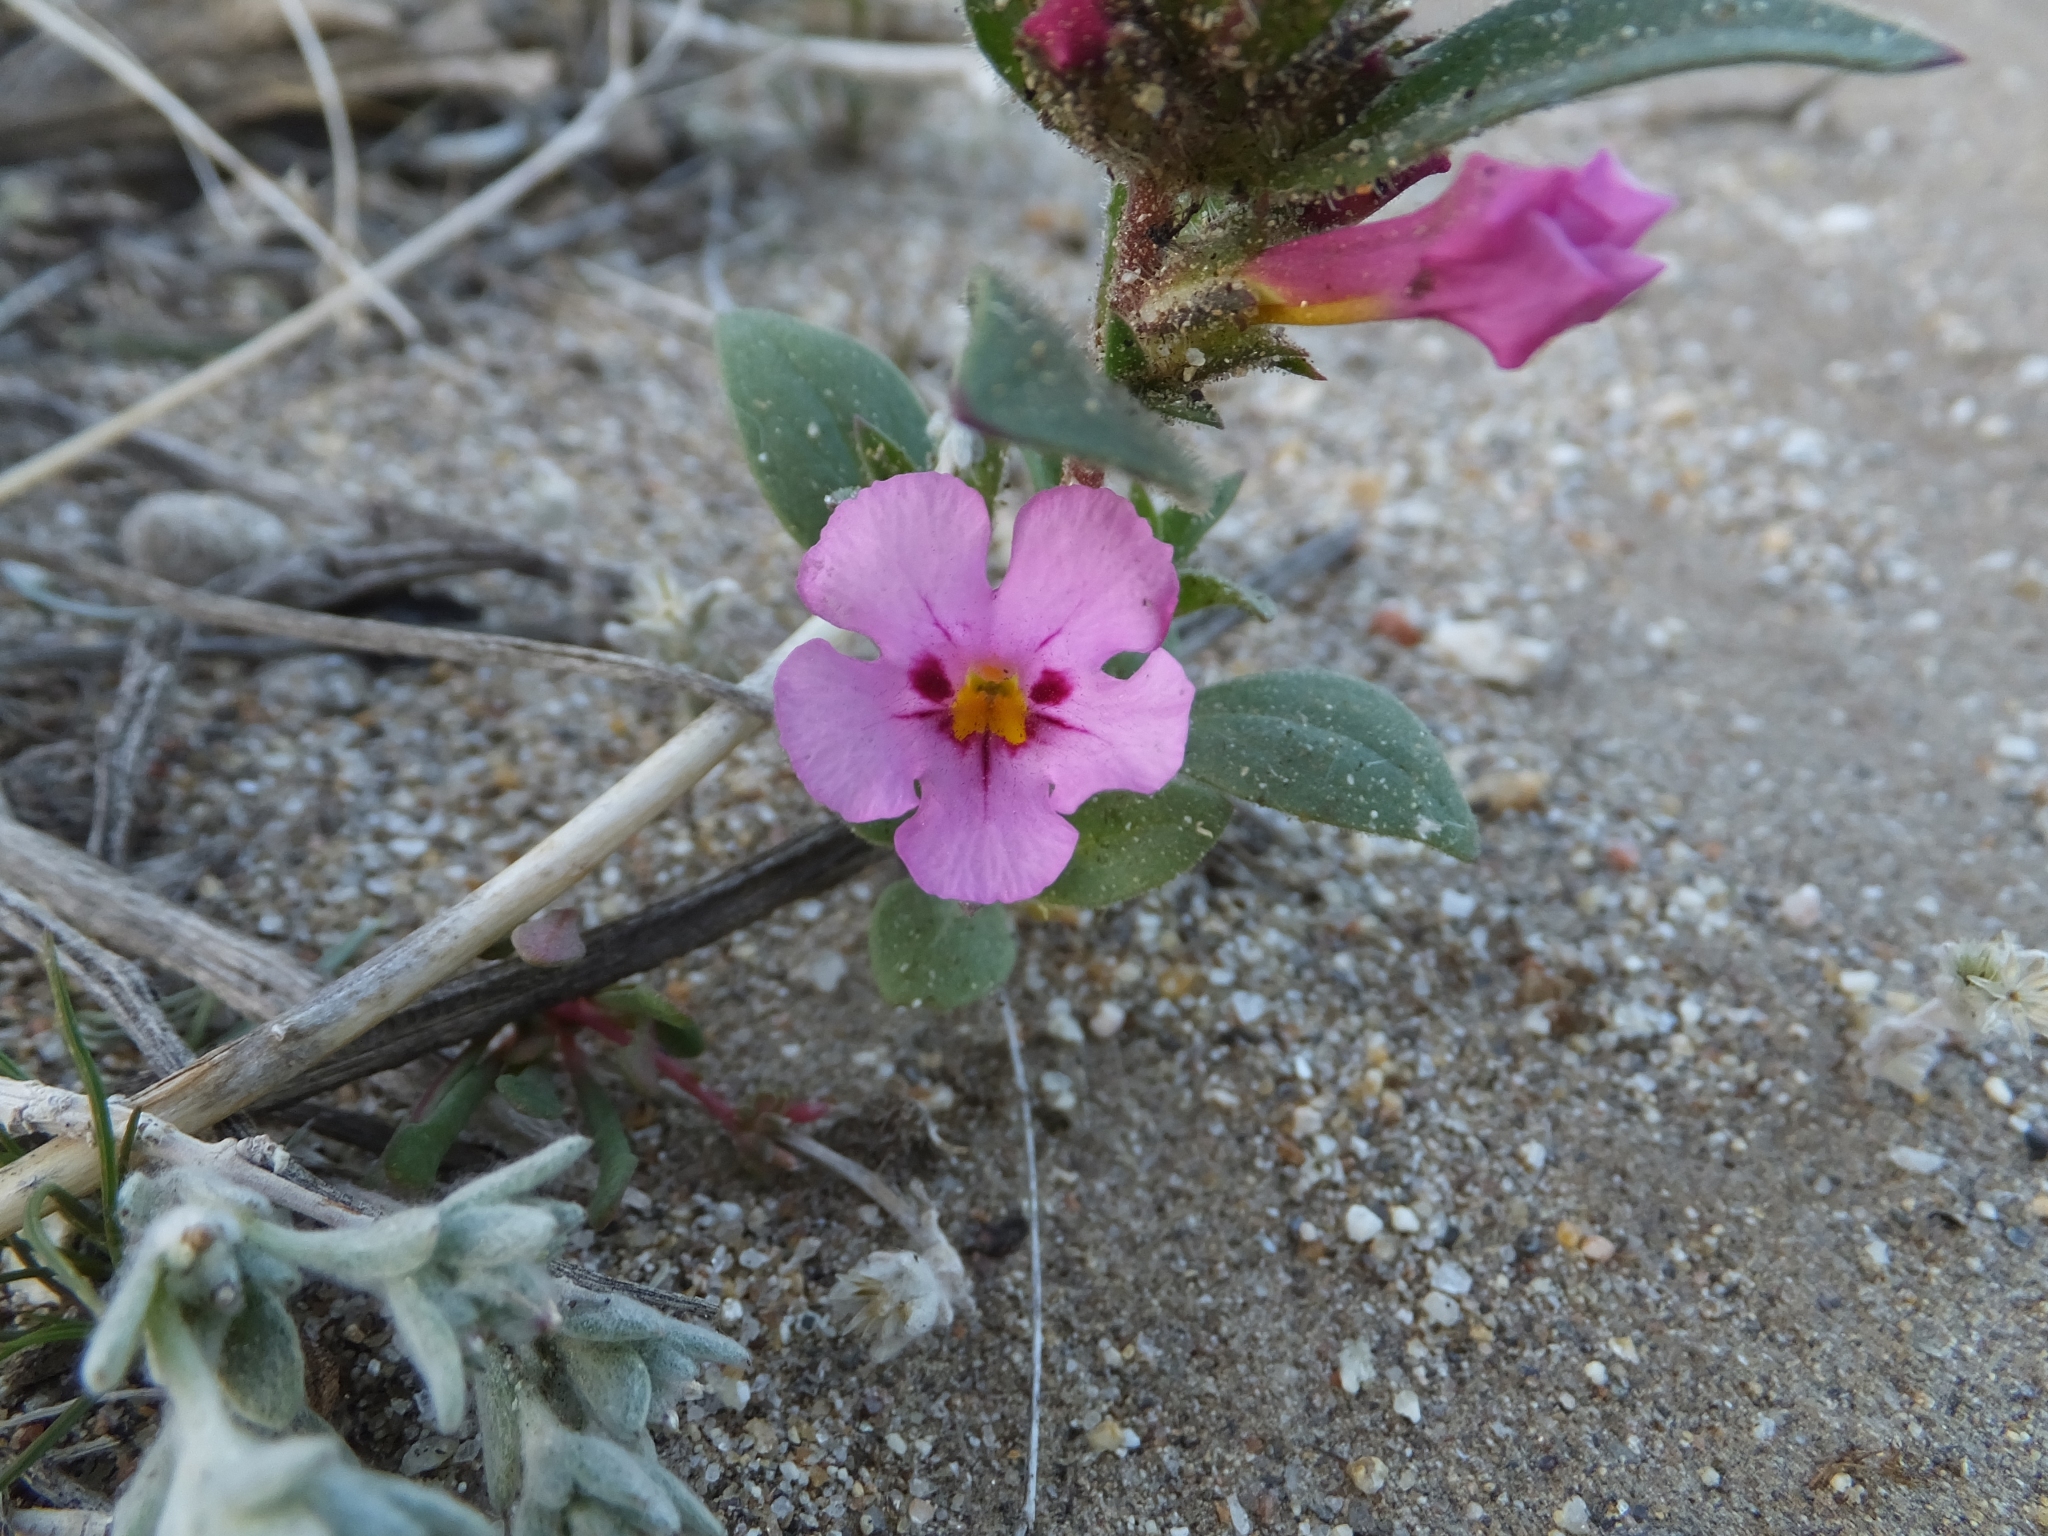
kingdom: Plantae
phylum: Tracheophyta
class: Magnoliopsida
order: Lamiales
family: Phrymaceae
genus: Diplacus
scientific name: Diplacus bigelovii
